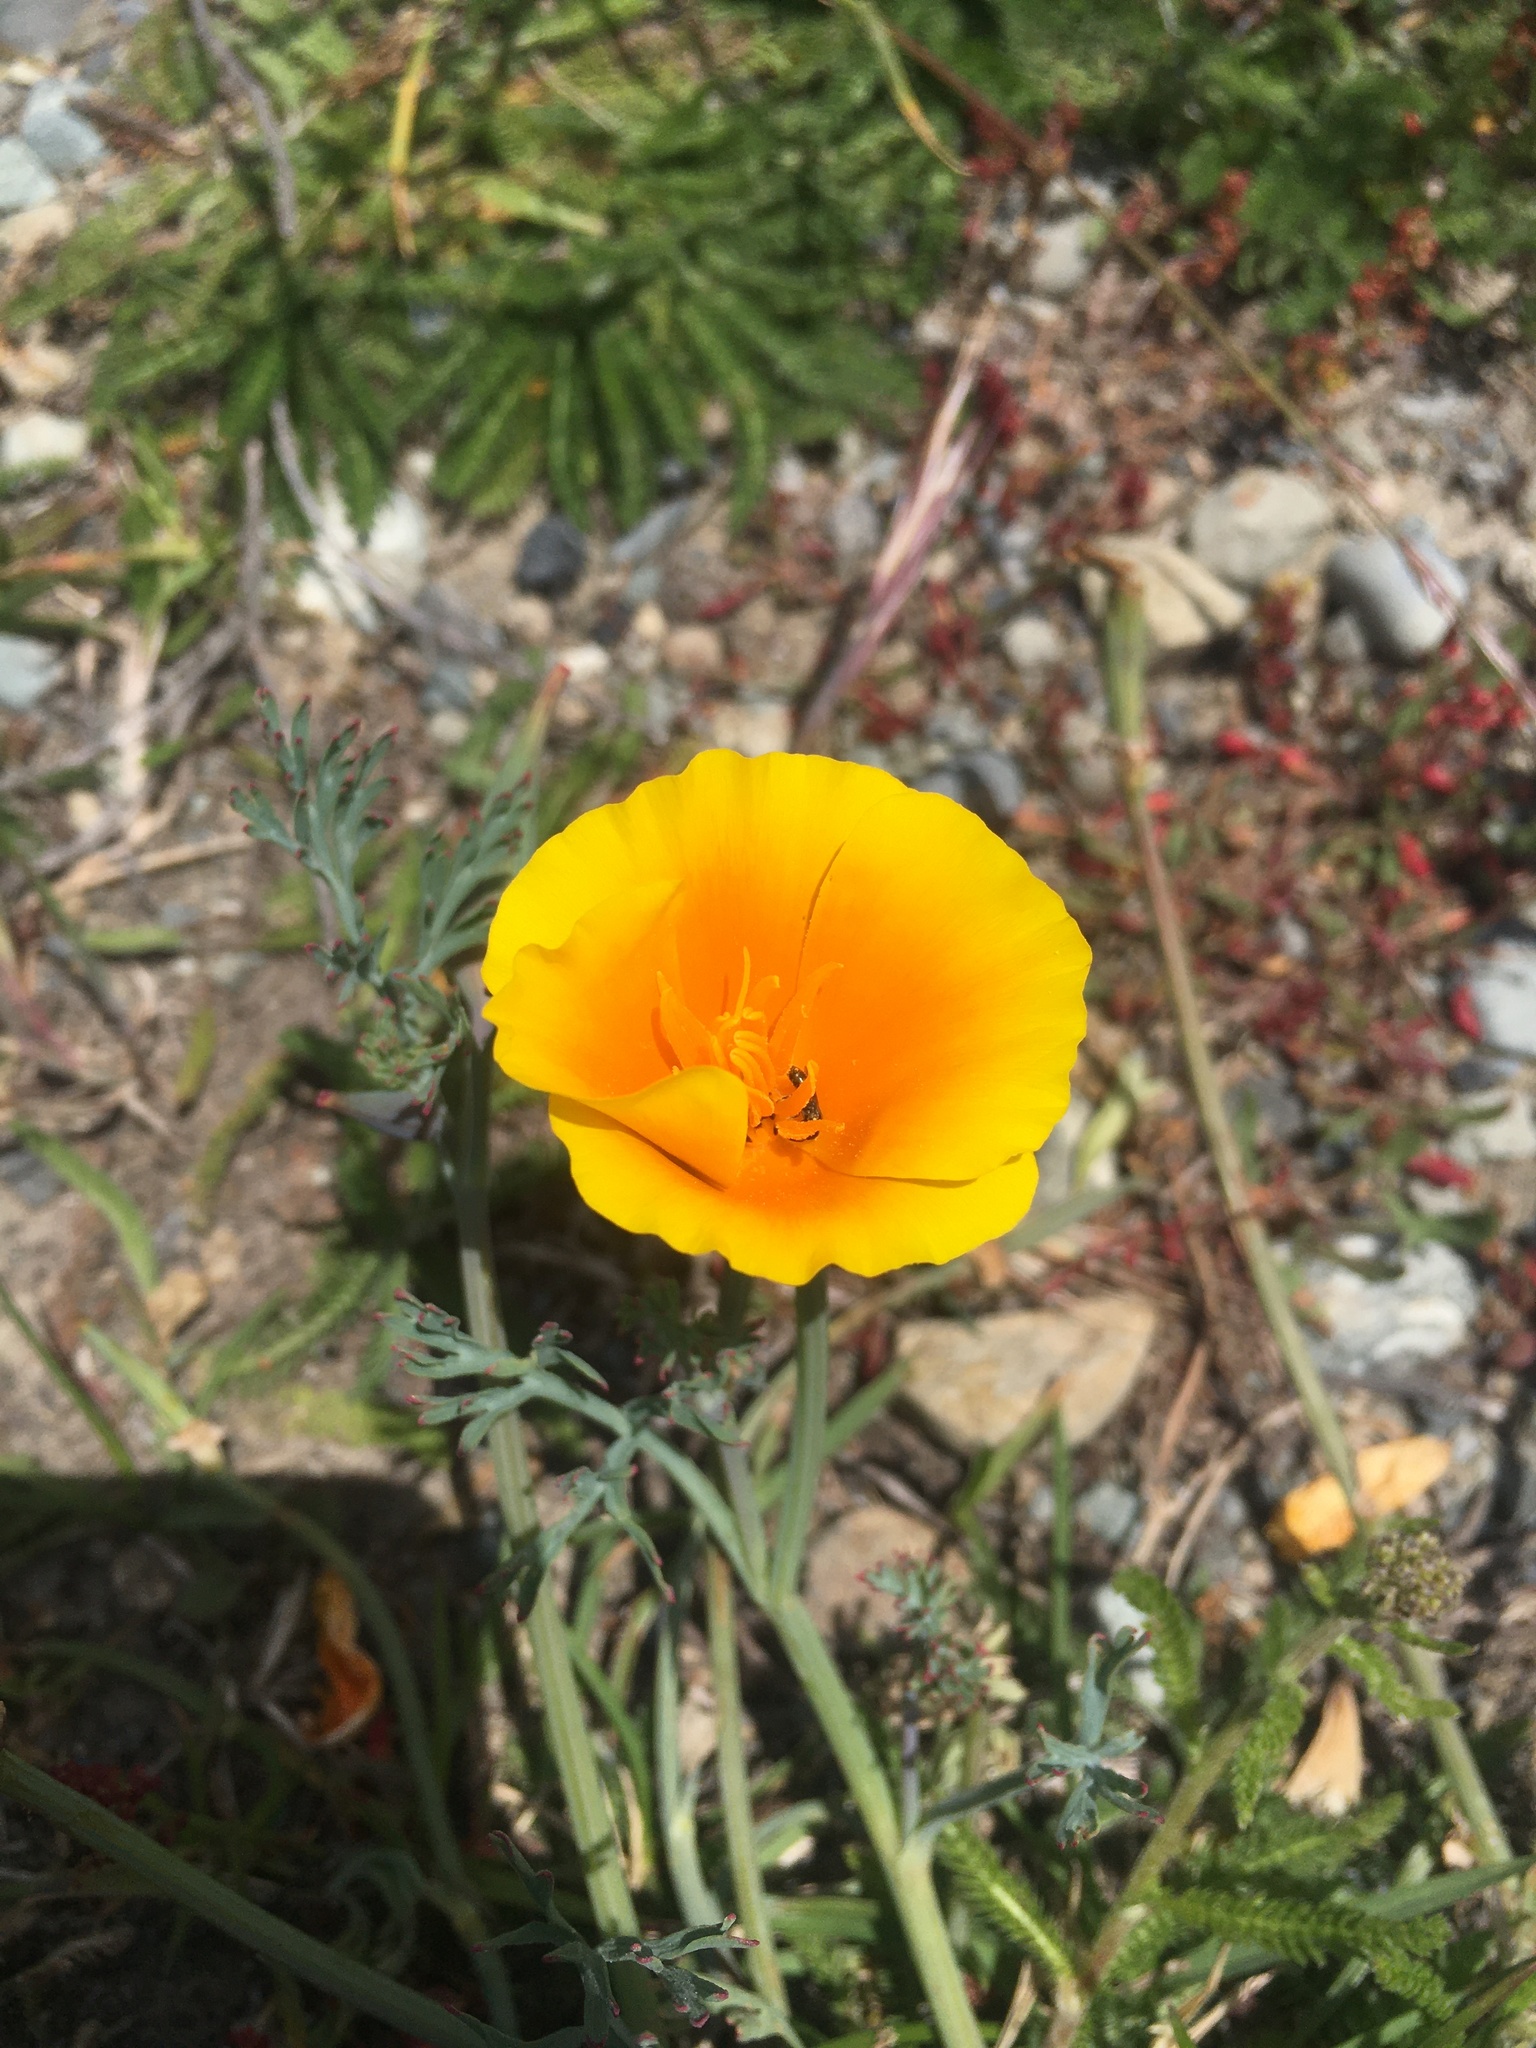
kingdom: Plantae
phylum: Tracheophyta
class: Magnoliopsida
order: Ranunculales
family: Papaveraceae
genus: Eschscholzia
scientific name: Eschscholzia californica
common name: California poppy
